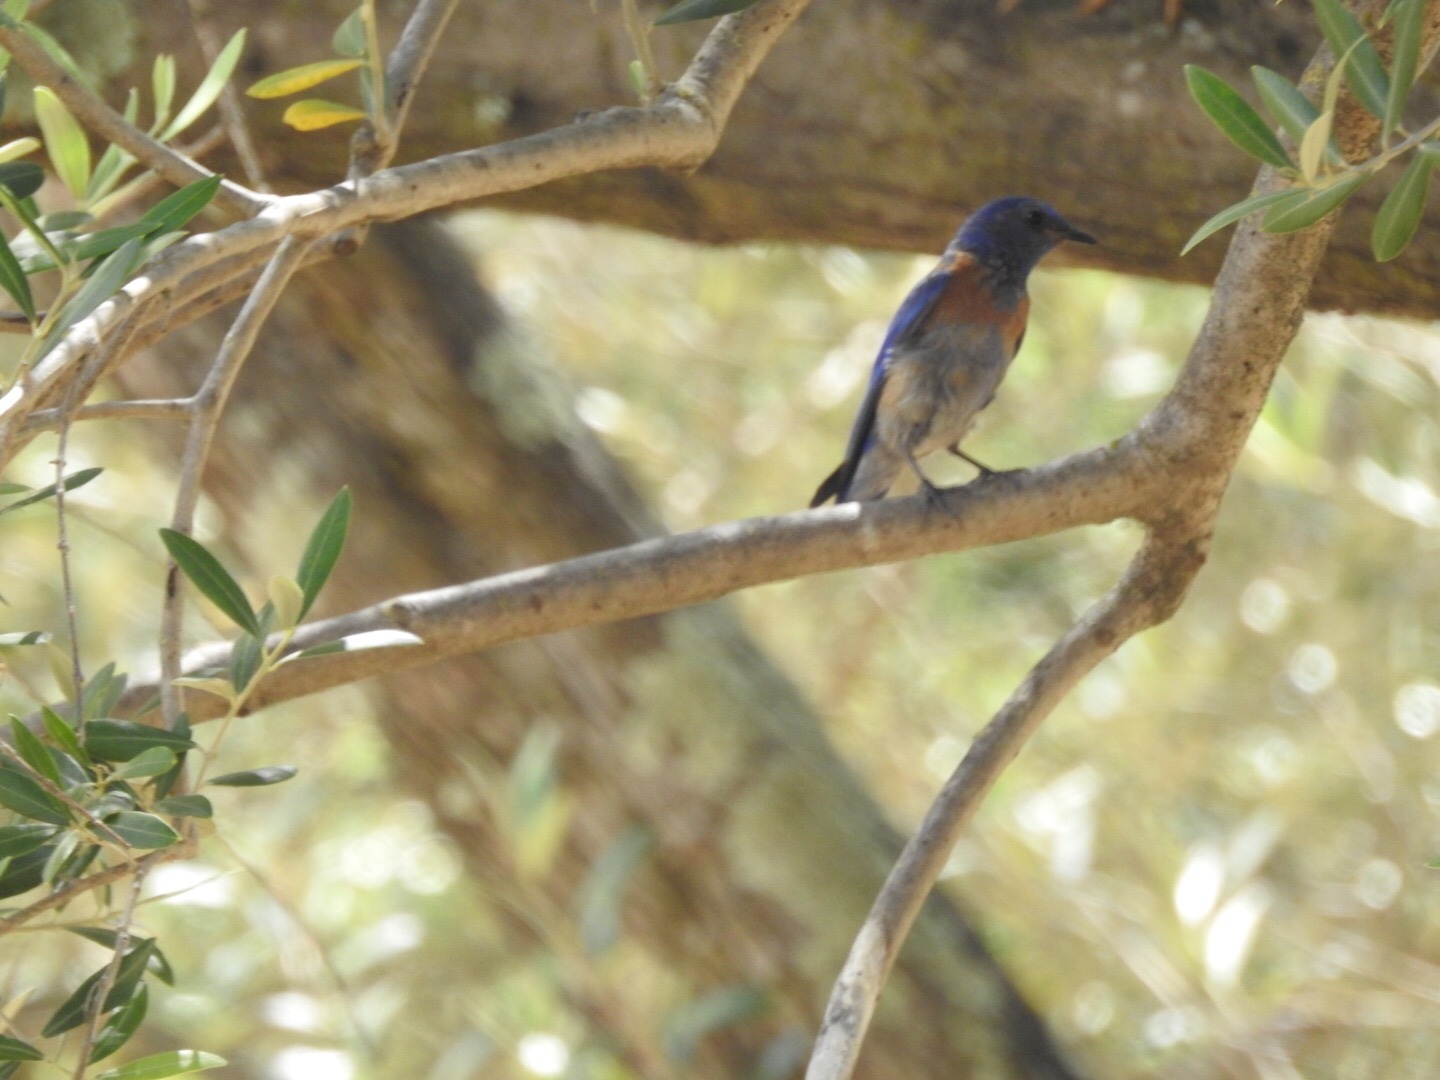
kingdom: Animalia
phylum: Chordata
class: Aves
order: Passeriformes
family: Turdidae
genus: Sialia
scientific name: Sialia mexicana
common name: Western bluebird
